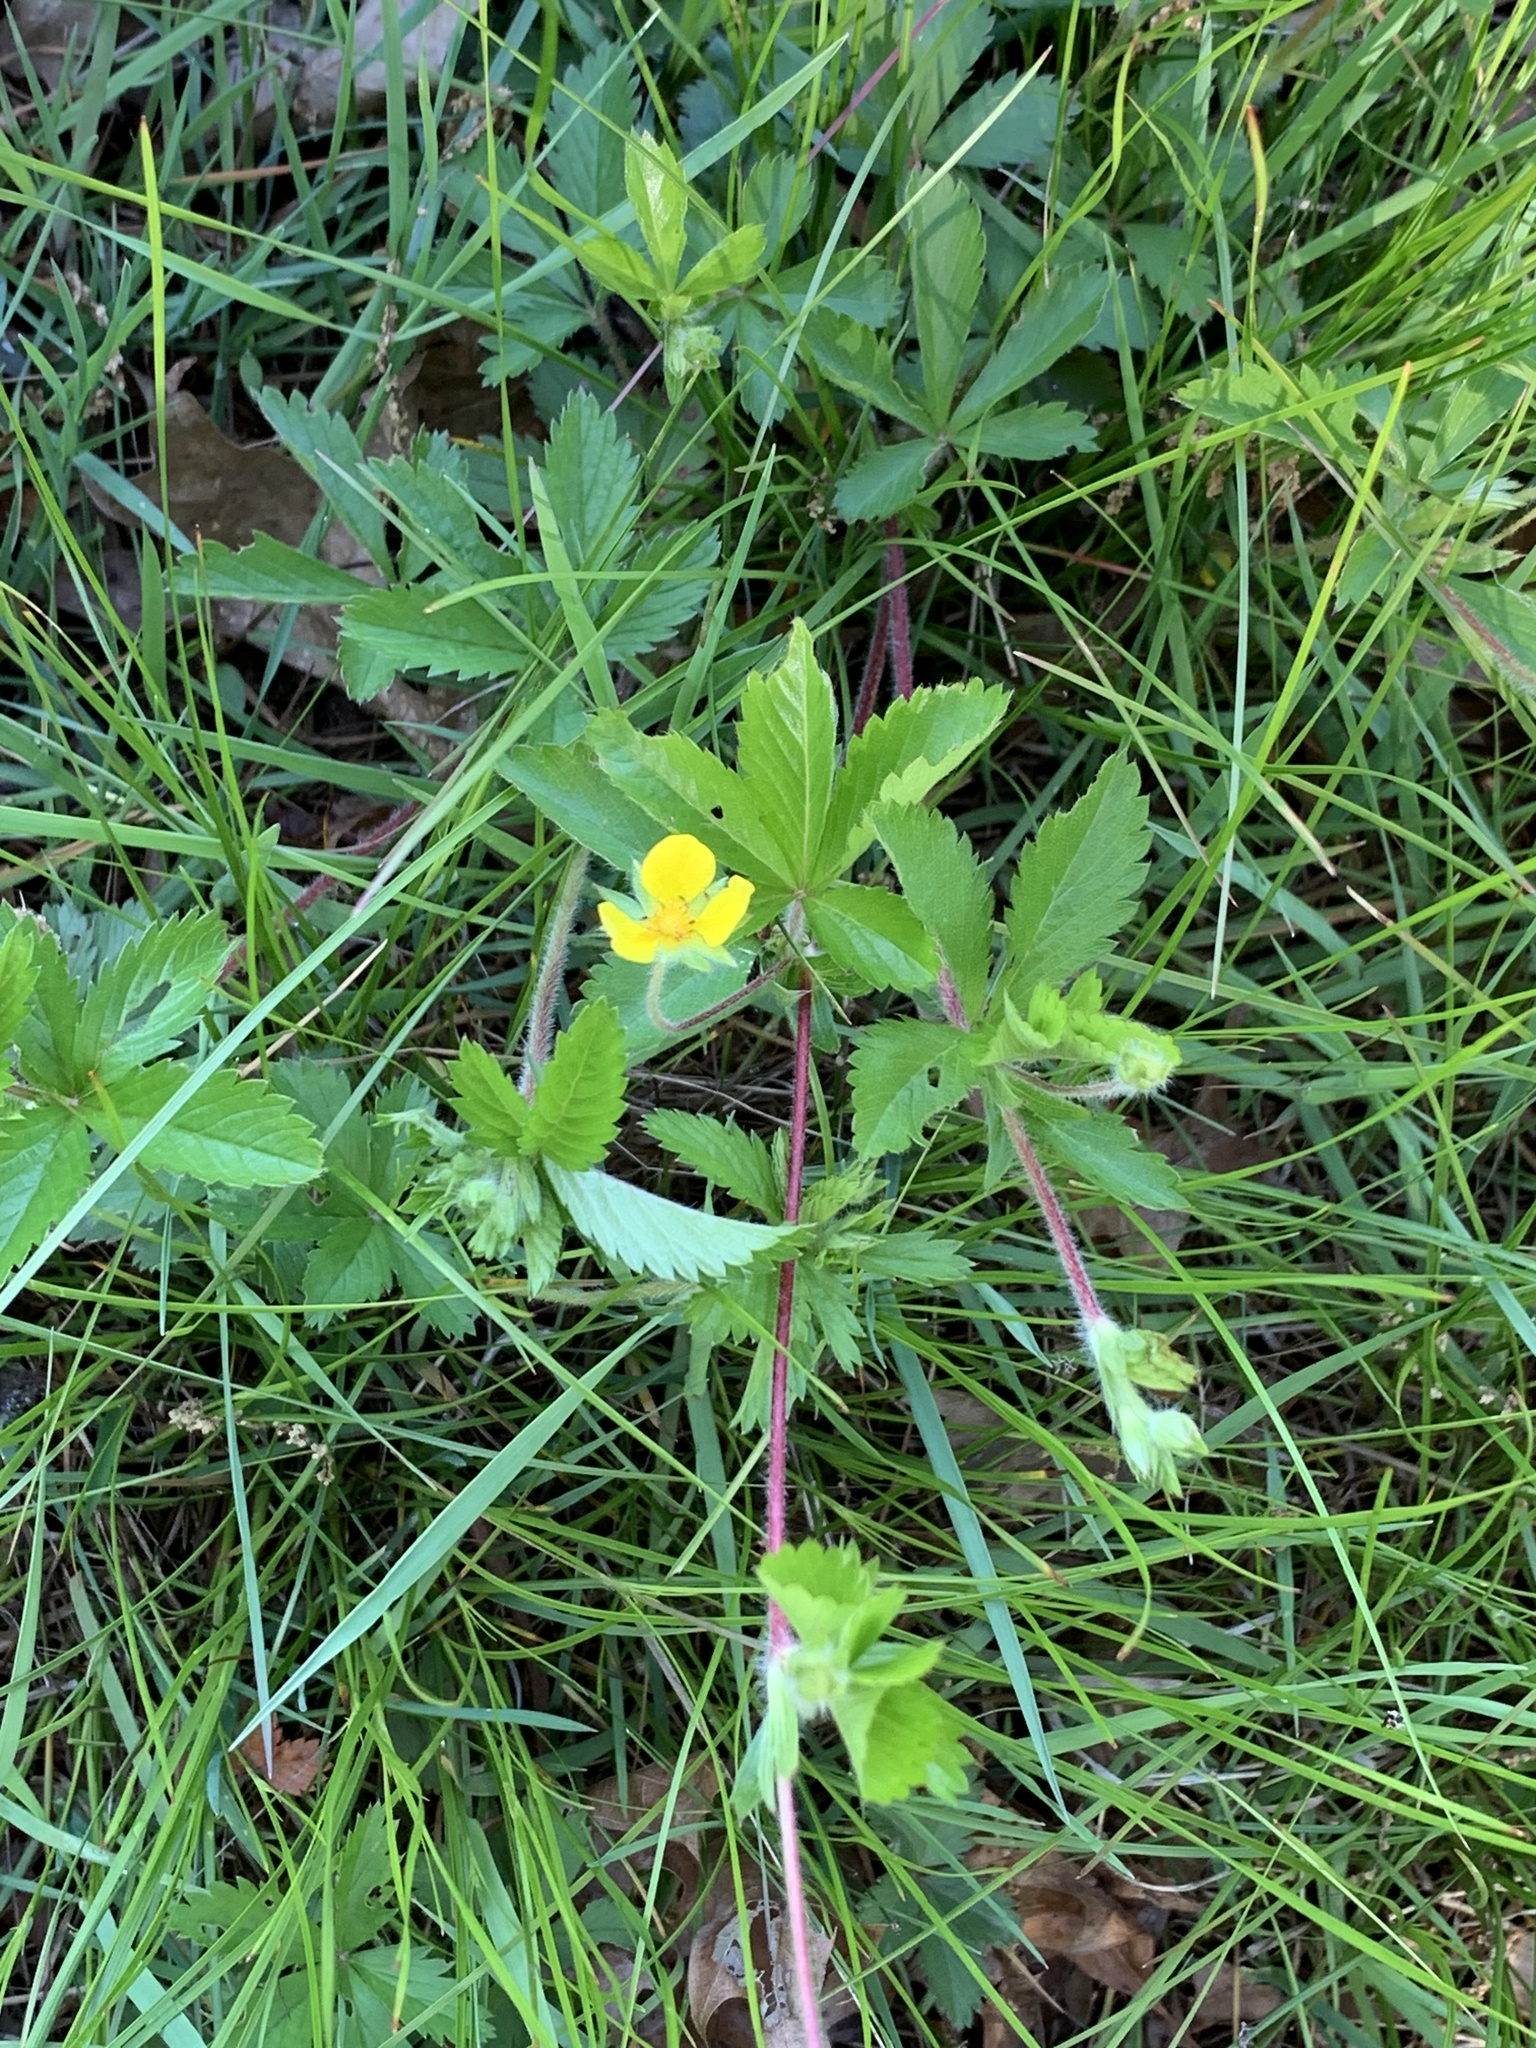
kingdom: Plantae
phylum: Tracheophyta
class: Magnoliopsida
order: Rosales
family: Rosaceae
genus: Potentilla
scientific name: Potentilla simplex
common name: Old field cinquefoil
